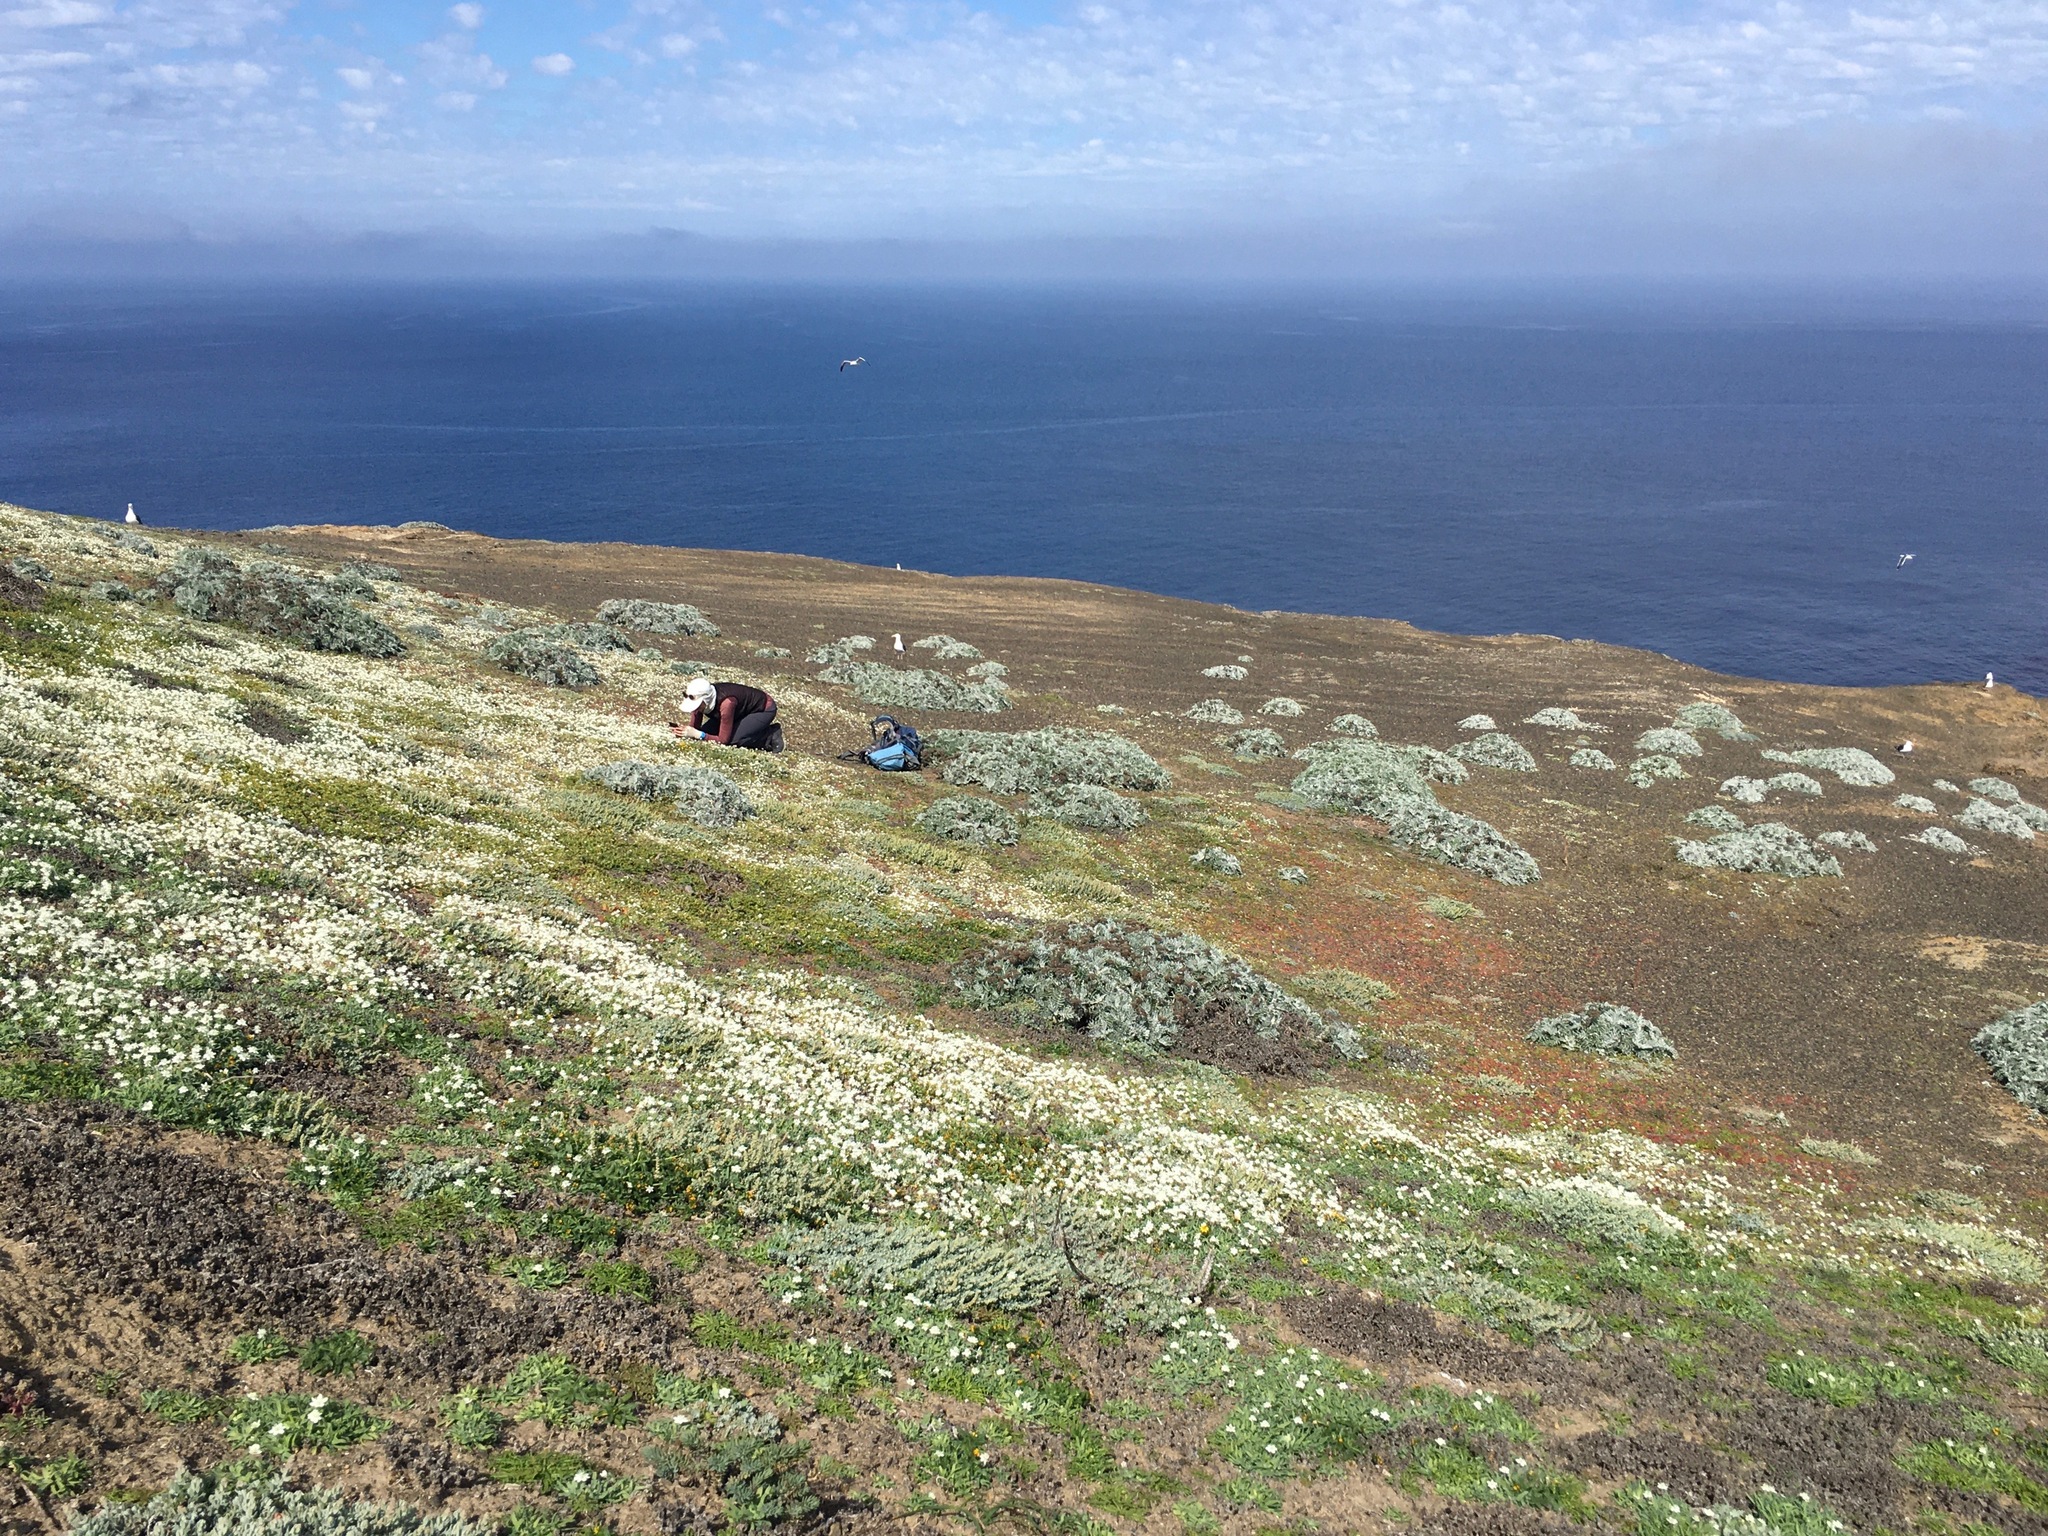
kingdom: Plantae
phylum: Tracheophyta
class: Magnoliopsida
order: Ranunculales
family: Papaveraceae
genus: Platystemon
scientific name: Platystemon californicus
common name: Cream-cups
